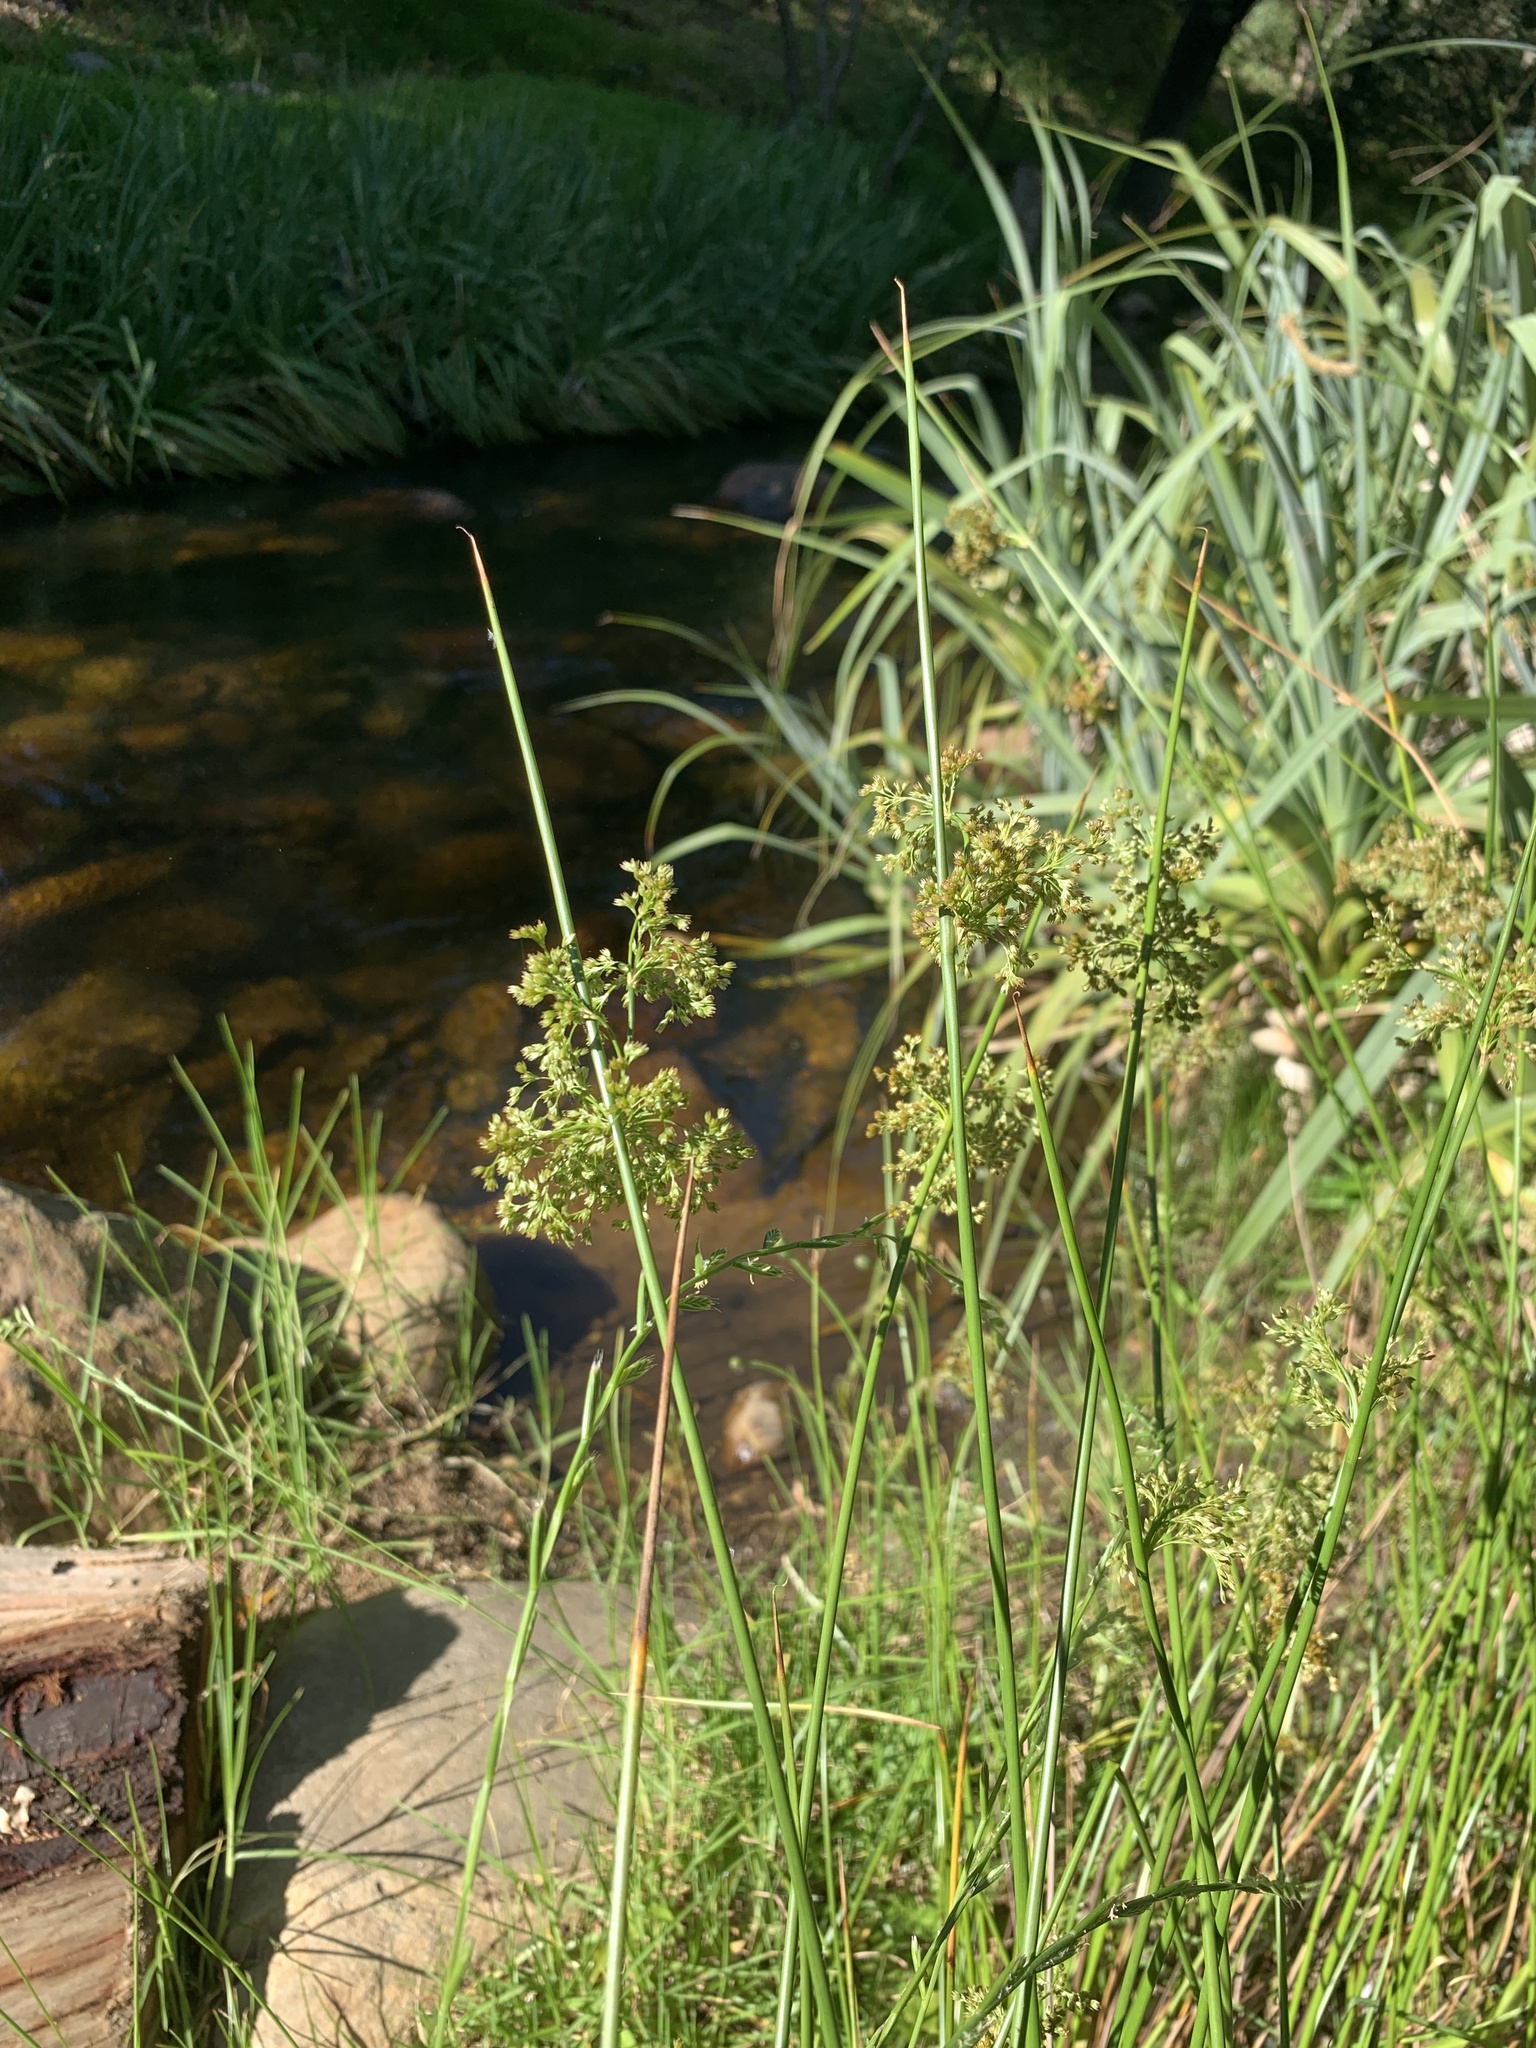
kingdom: Plantae
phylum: Tracheophyta
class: Liliopsida
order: Poales
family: Juncaceae
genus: Juncus
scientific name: Juncus effusus
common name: Soft rush
